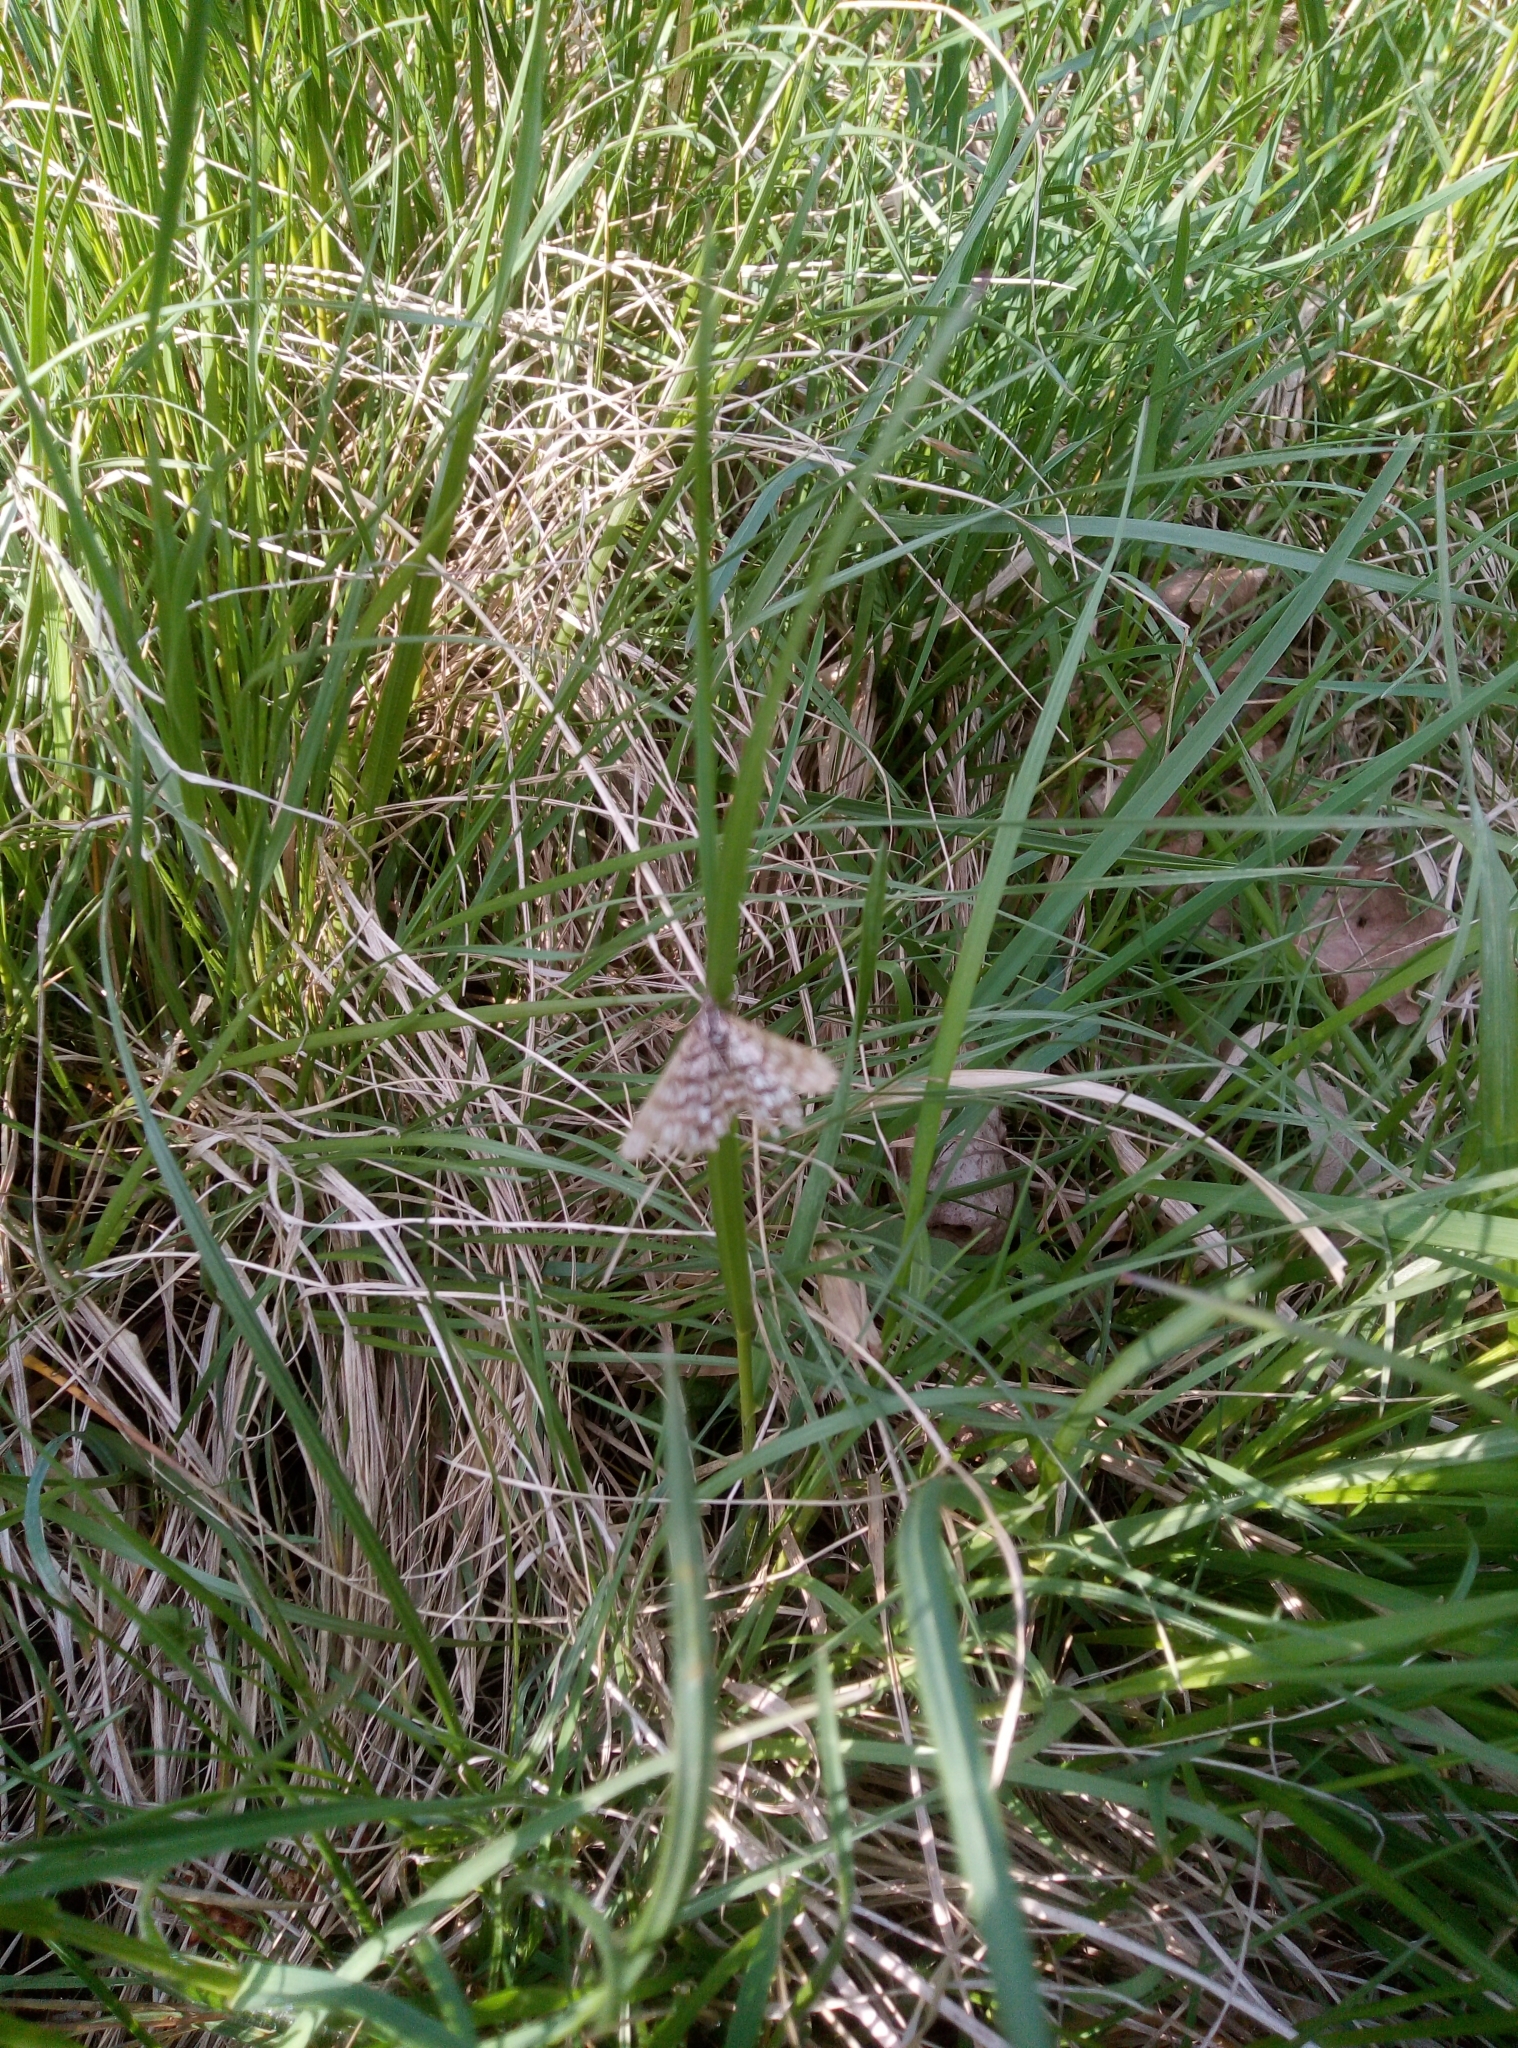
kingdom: Animalia
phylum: Arthropoda
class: Insecta
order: Lepidoptera
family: Geometridae
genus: Chiasmia
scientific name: Chiasmia clathrata
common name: Latticed heath
